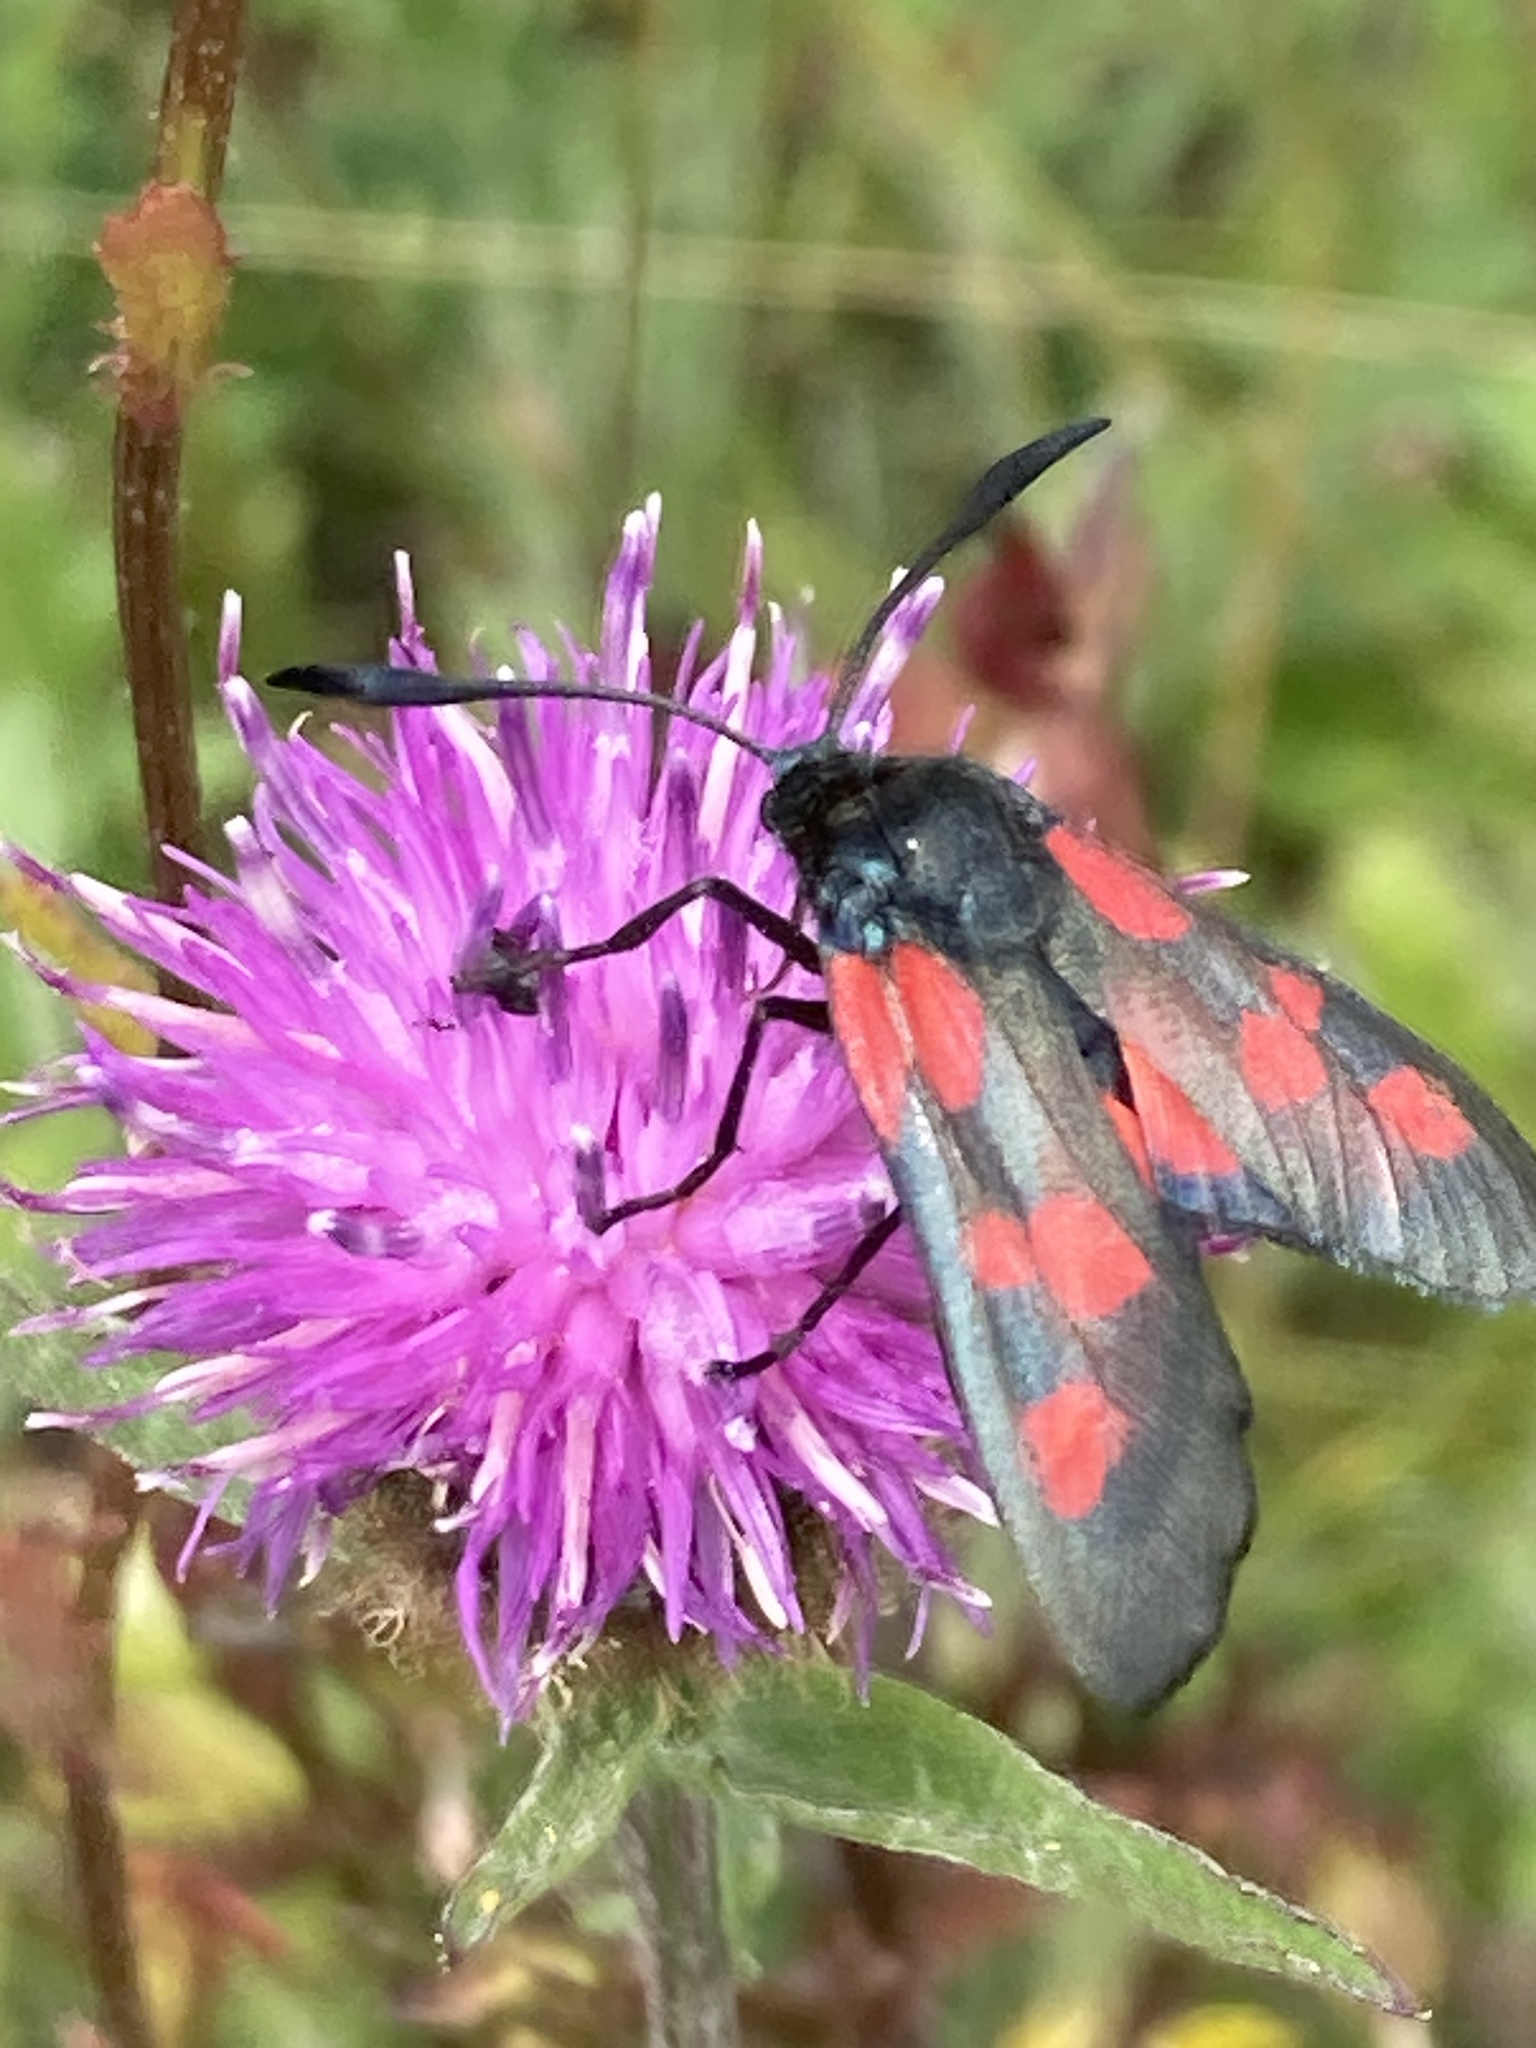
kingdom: Animalia
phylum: Arthropoda
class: Insecta
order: Lepidoptera
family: Zygaenidae
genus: Zygaena
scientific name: Zygaena
